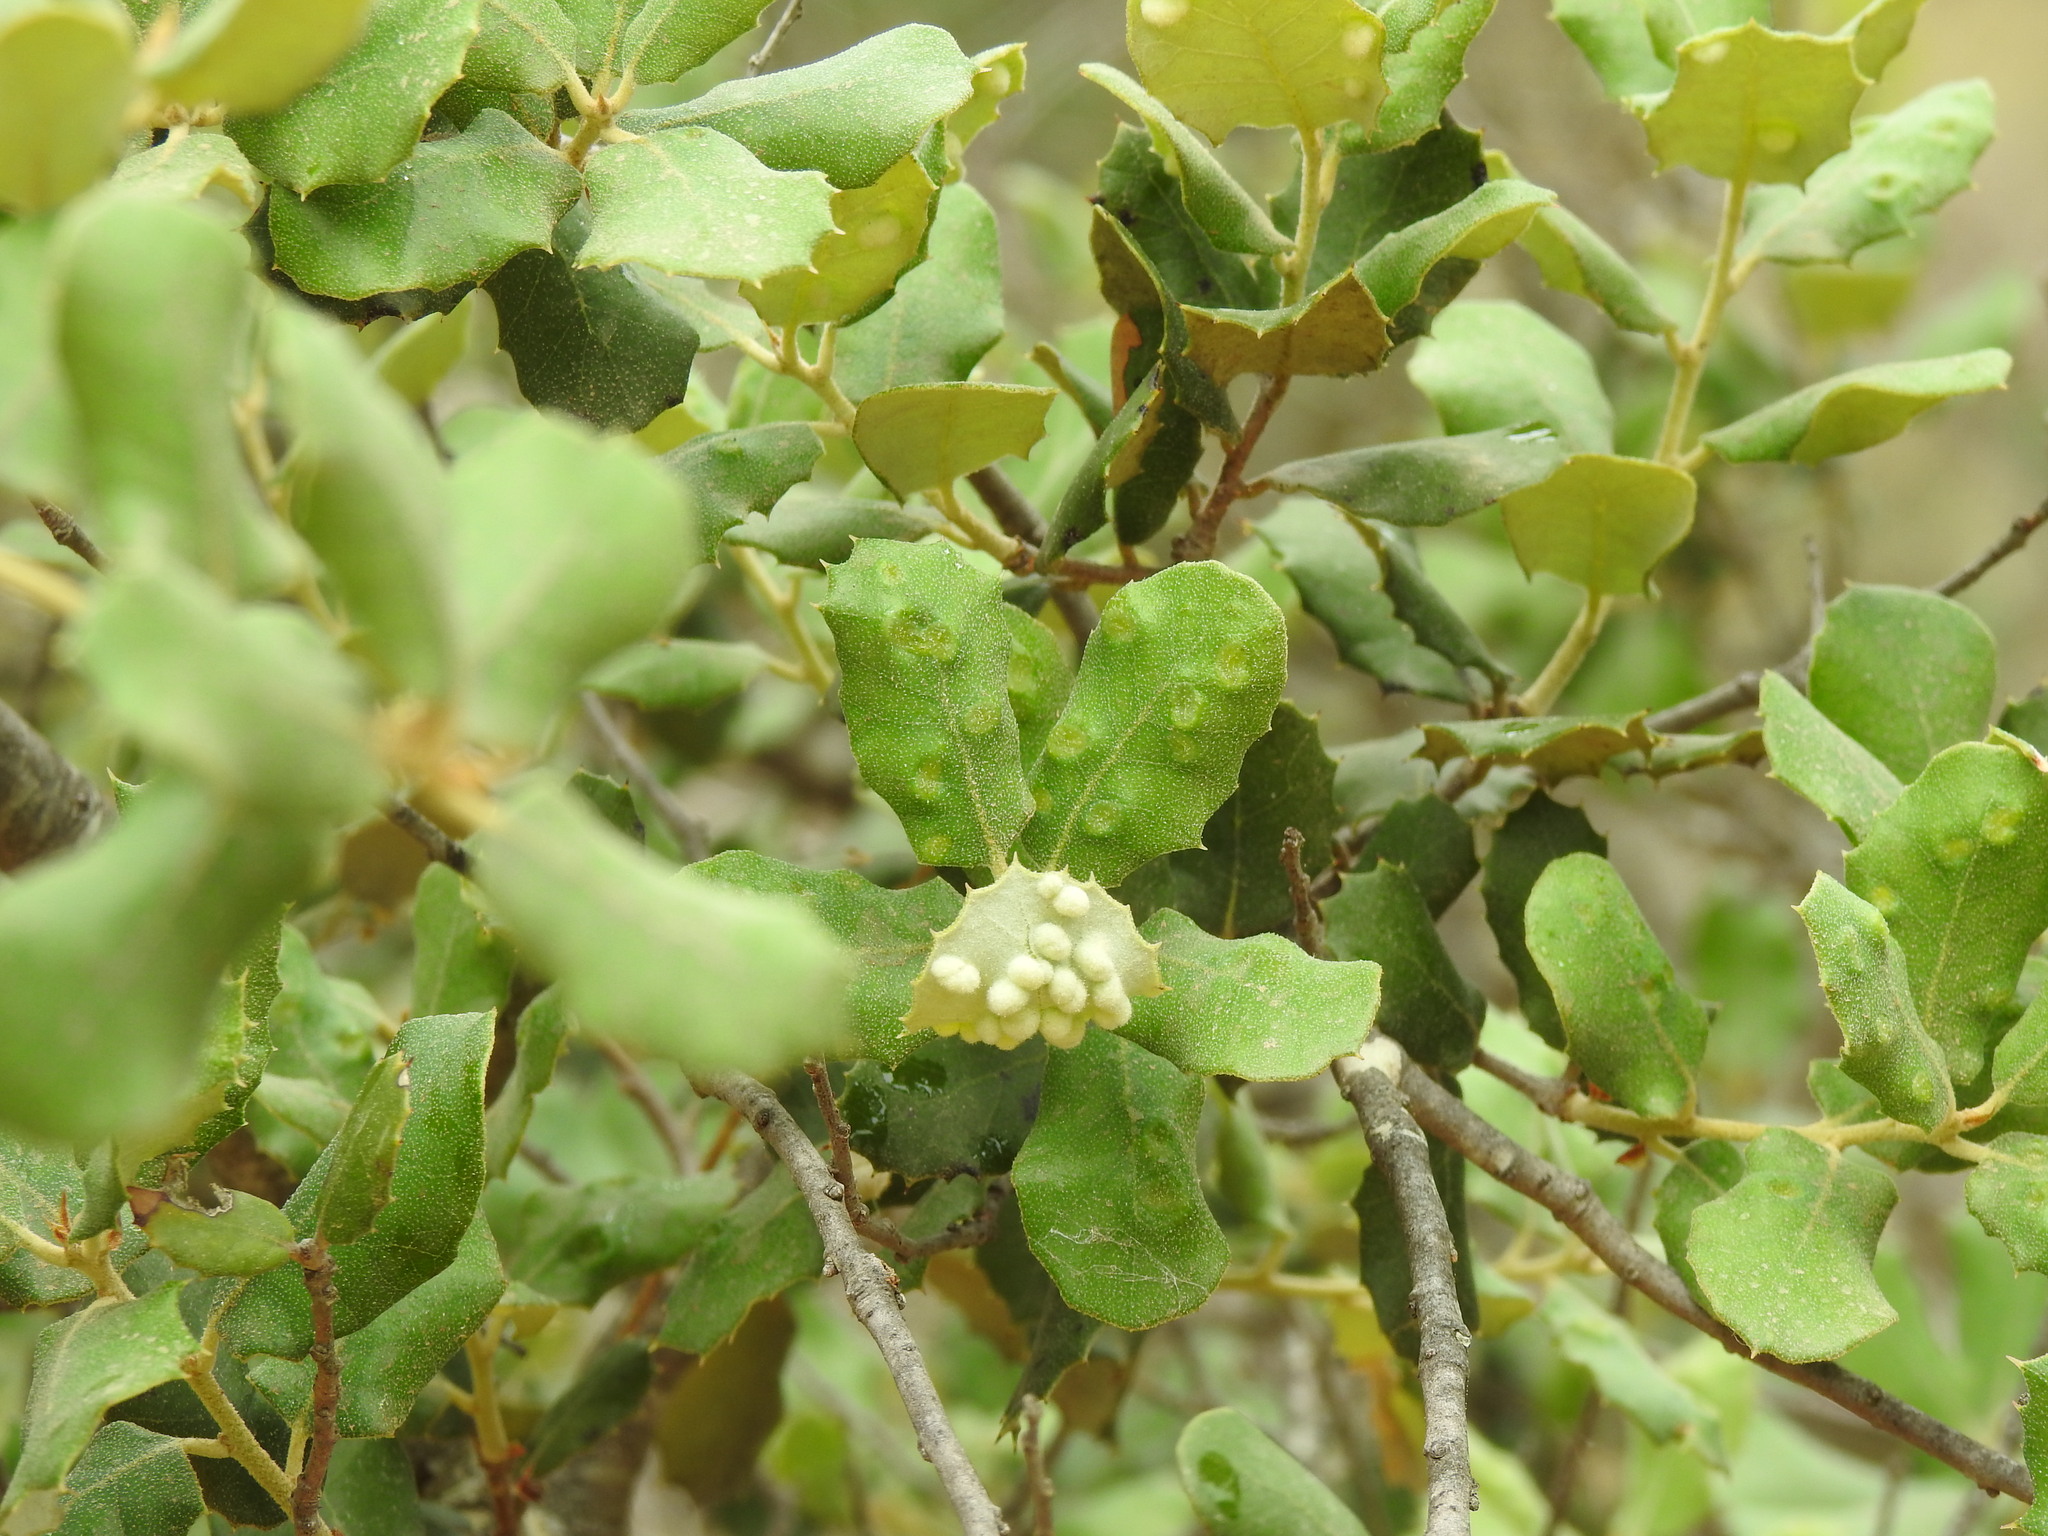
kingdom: Animalia
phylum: Arthropoda
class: Insecta
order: Diptera
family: Cecidomyiidae
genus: Dryomyia
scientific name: Dryomyia lichtensteinii
